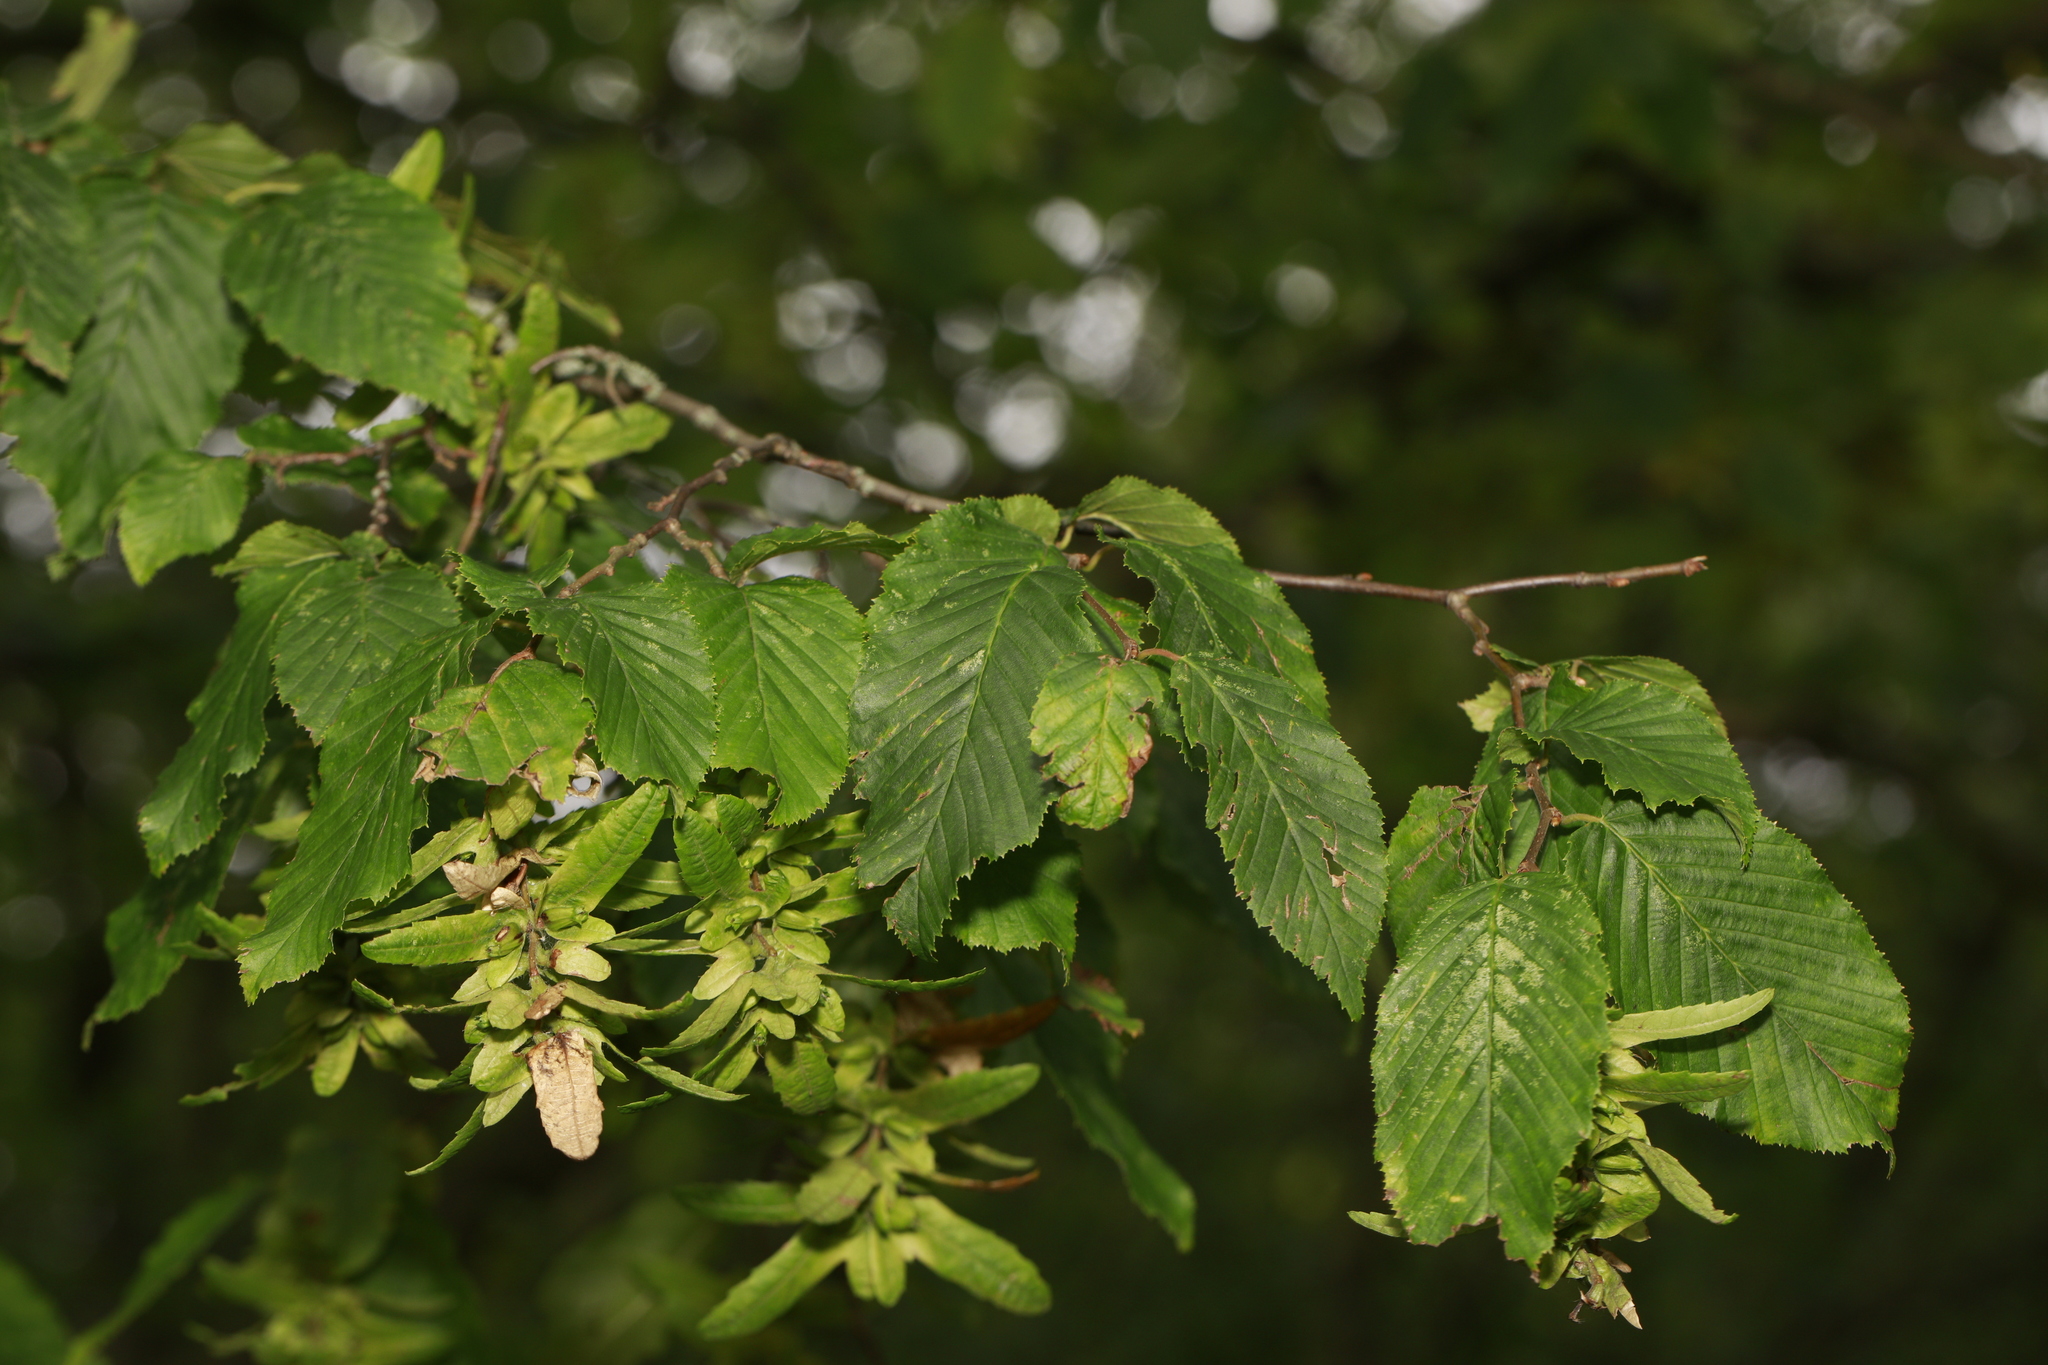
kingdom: Plantae
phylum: Tracheophyta
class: Magnoliopsida
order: Fagales
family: Betulaceae
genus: Carpinus
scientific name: Carpinus betulus
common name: Hornbeam
